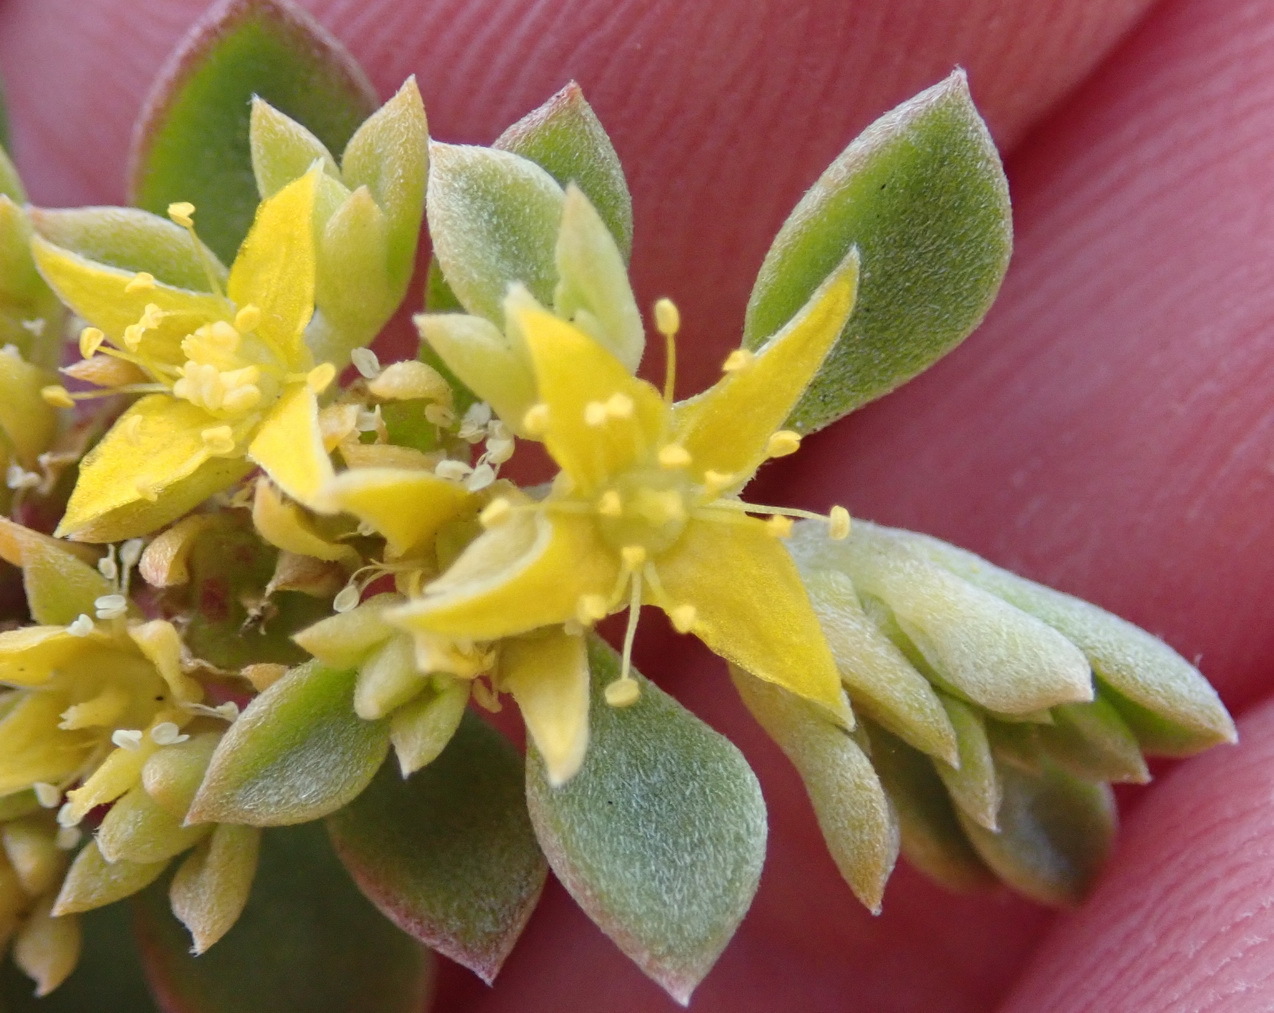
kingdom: Plantae
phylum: Tracheophyta
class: Magnoliopsida
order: Caryophyllales
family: Aizoaceae
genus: Aizoon
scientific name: Aizoon rigidum
